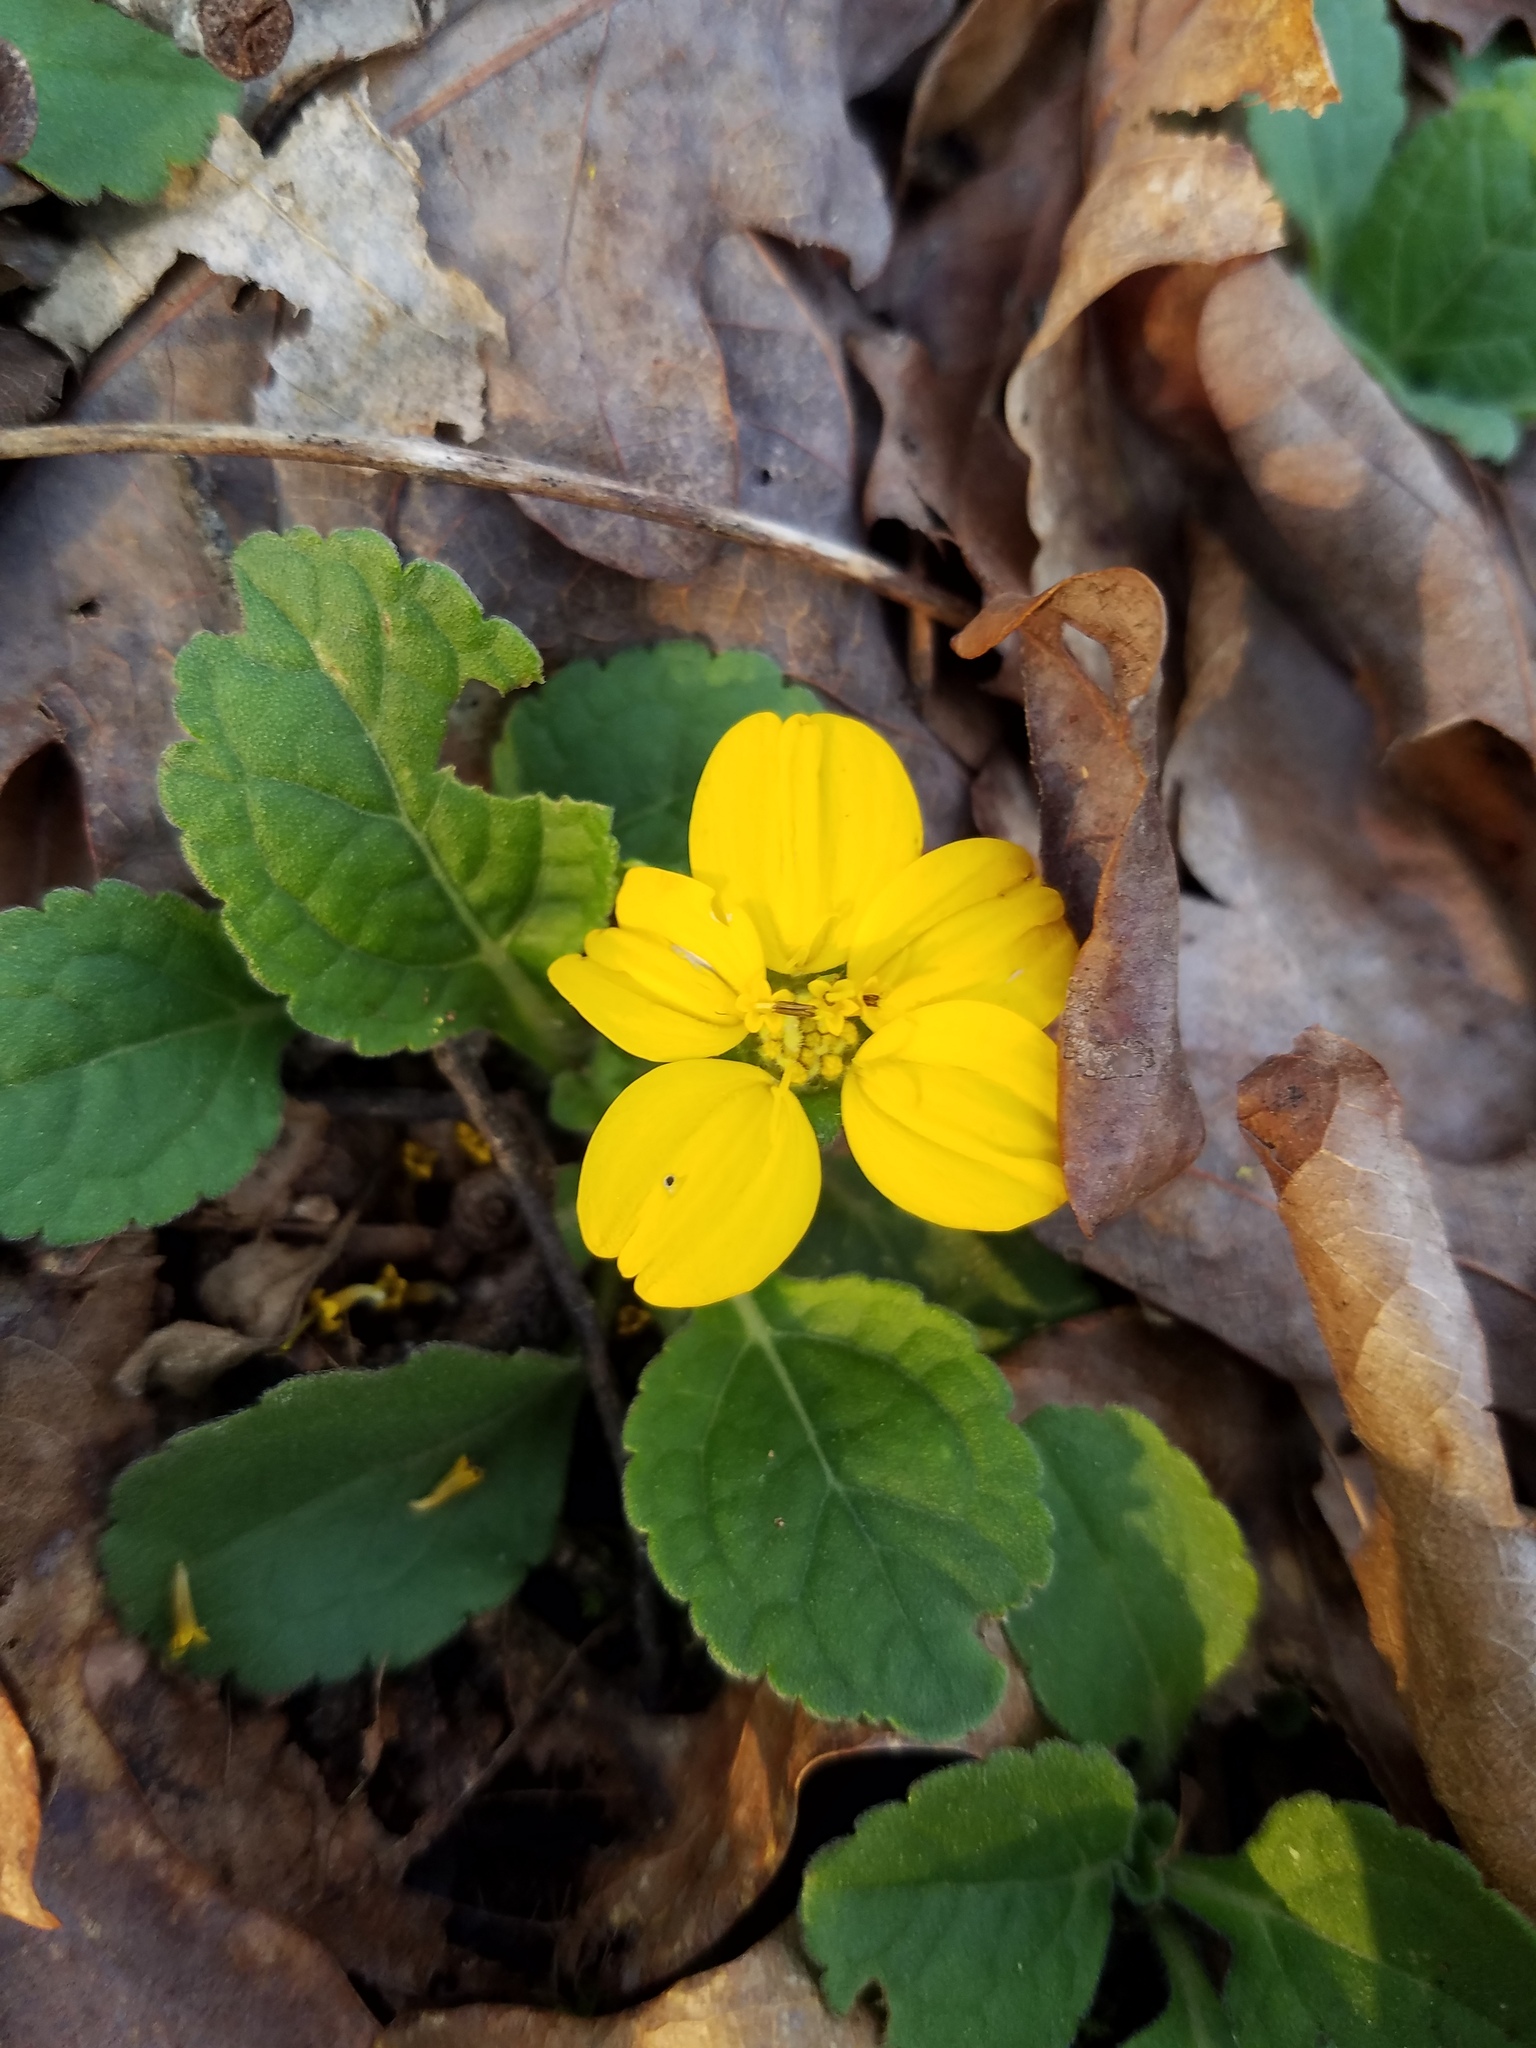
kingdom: Plantae
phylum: Tracheophyta
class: Magnoliopsida
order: Asterales
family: Asteraceae
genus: Chrysogonum
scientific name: Chrysogonum virginianum
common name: Golden-knee
